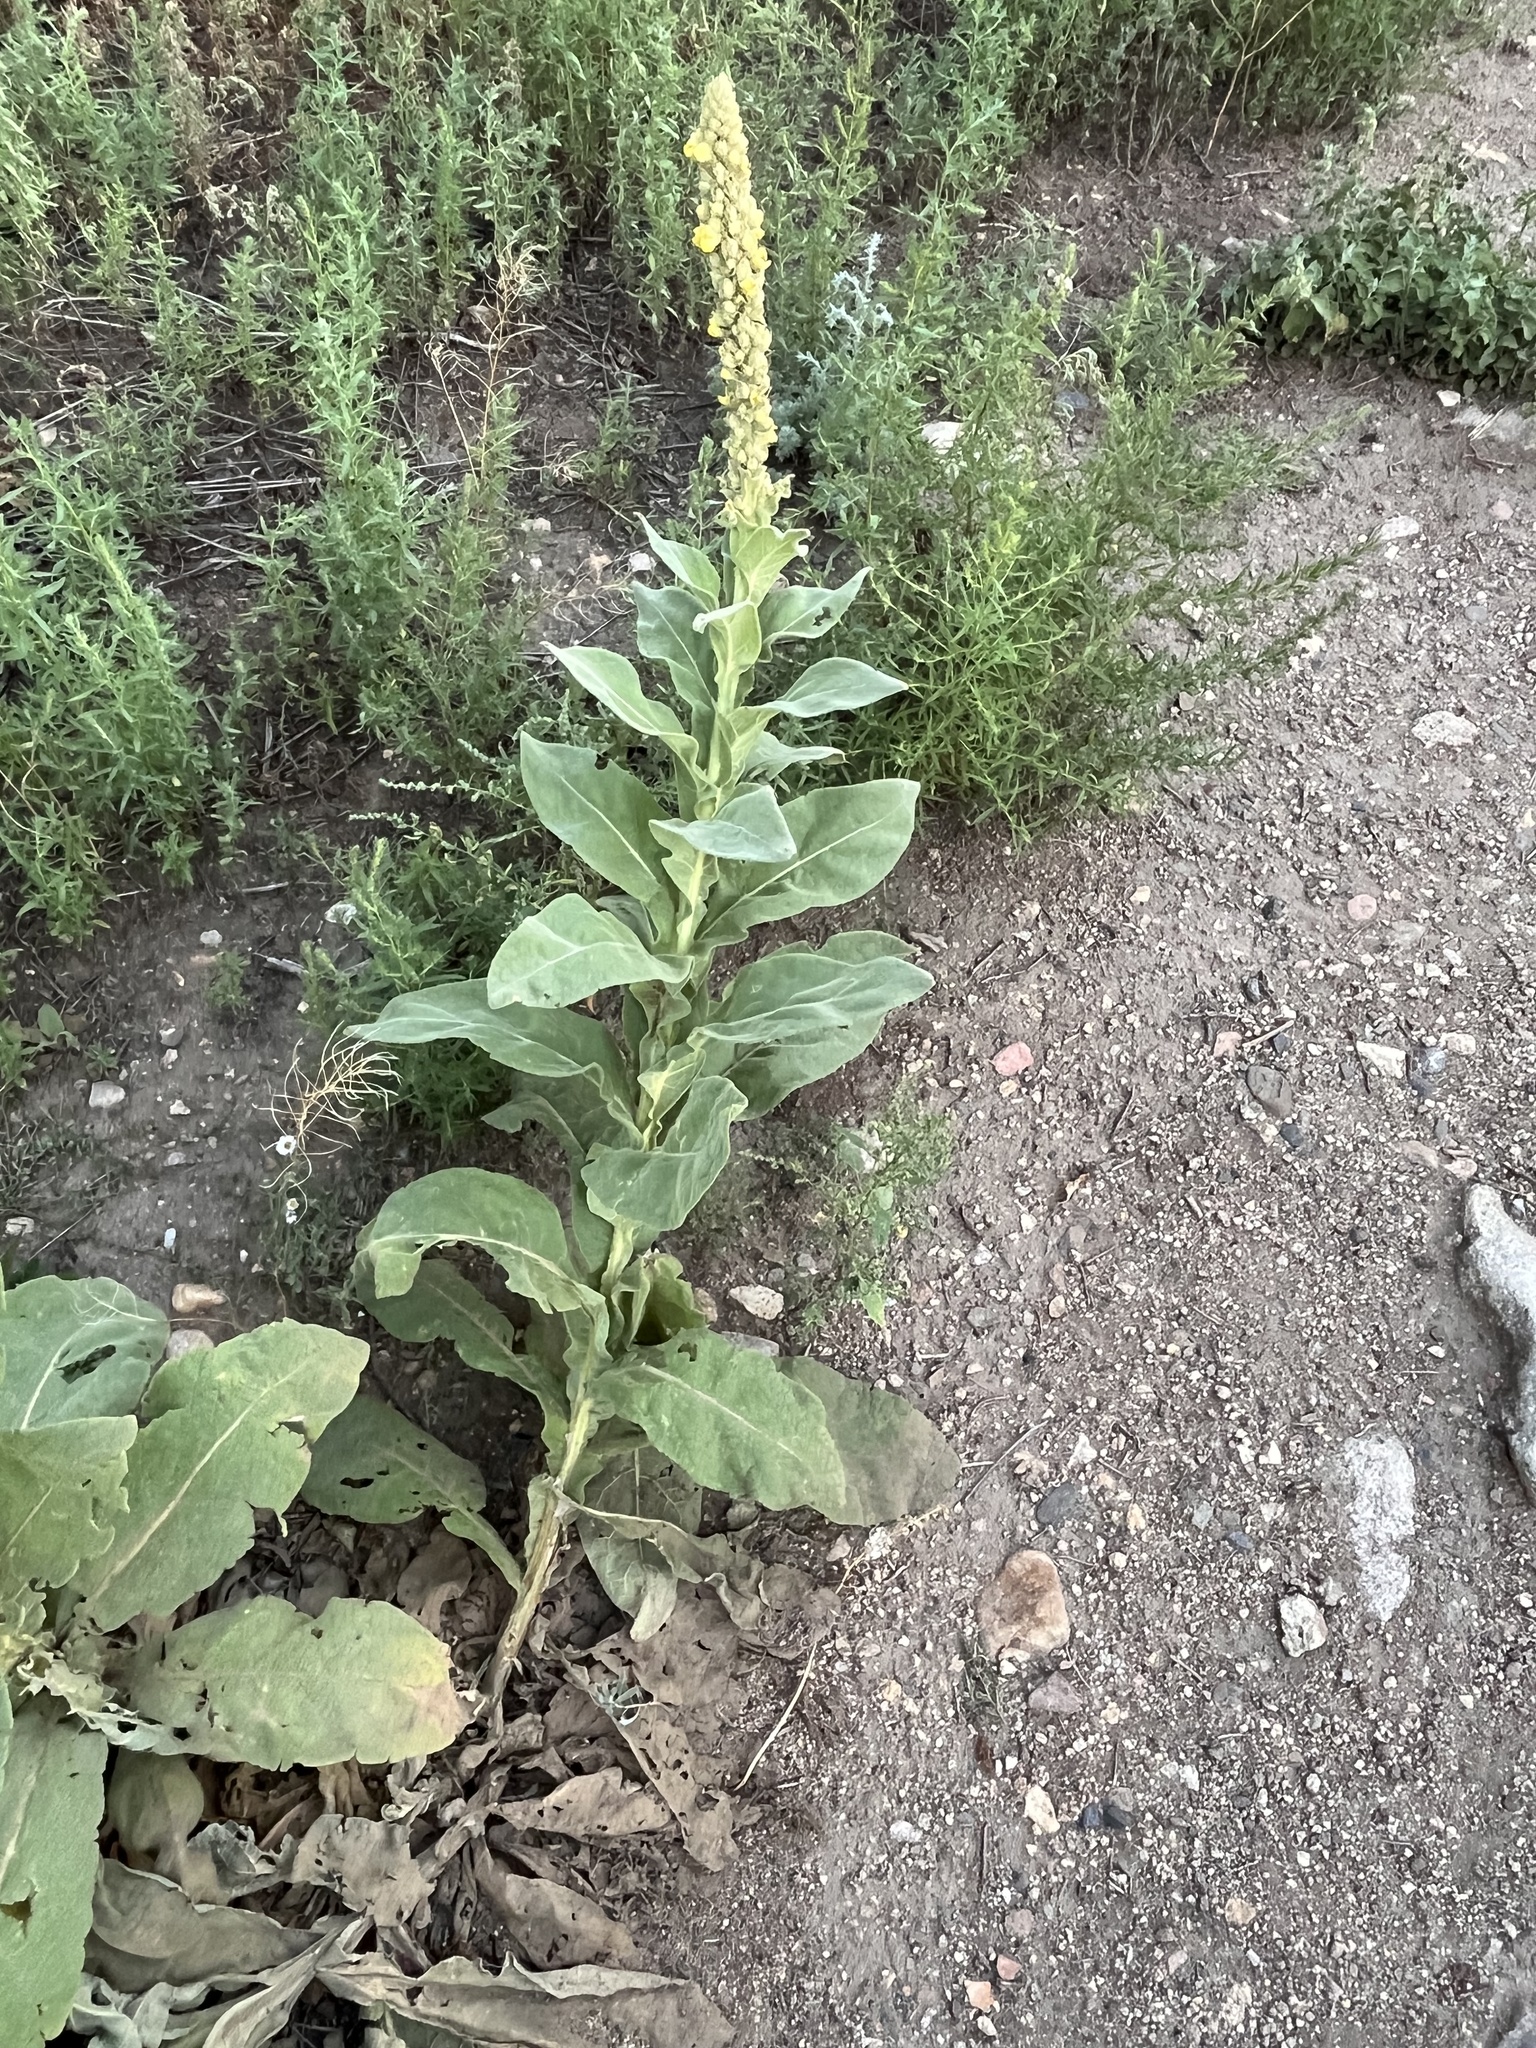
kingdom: Plantae
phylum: Tracheophyta
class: Magnoliopsida
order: Lamiales
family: Scrophulariaceae
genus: Verbascum
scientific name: Verbascum thapsus
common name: Common mullein
